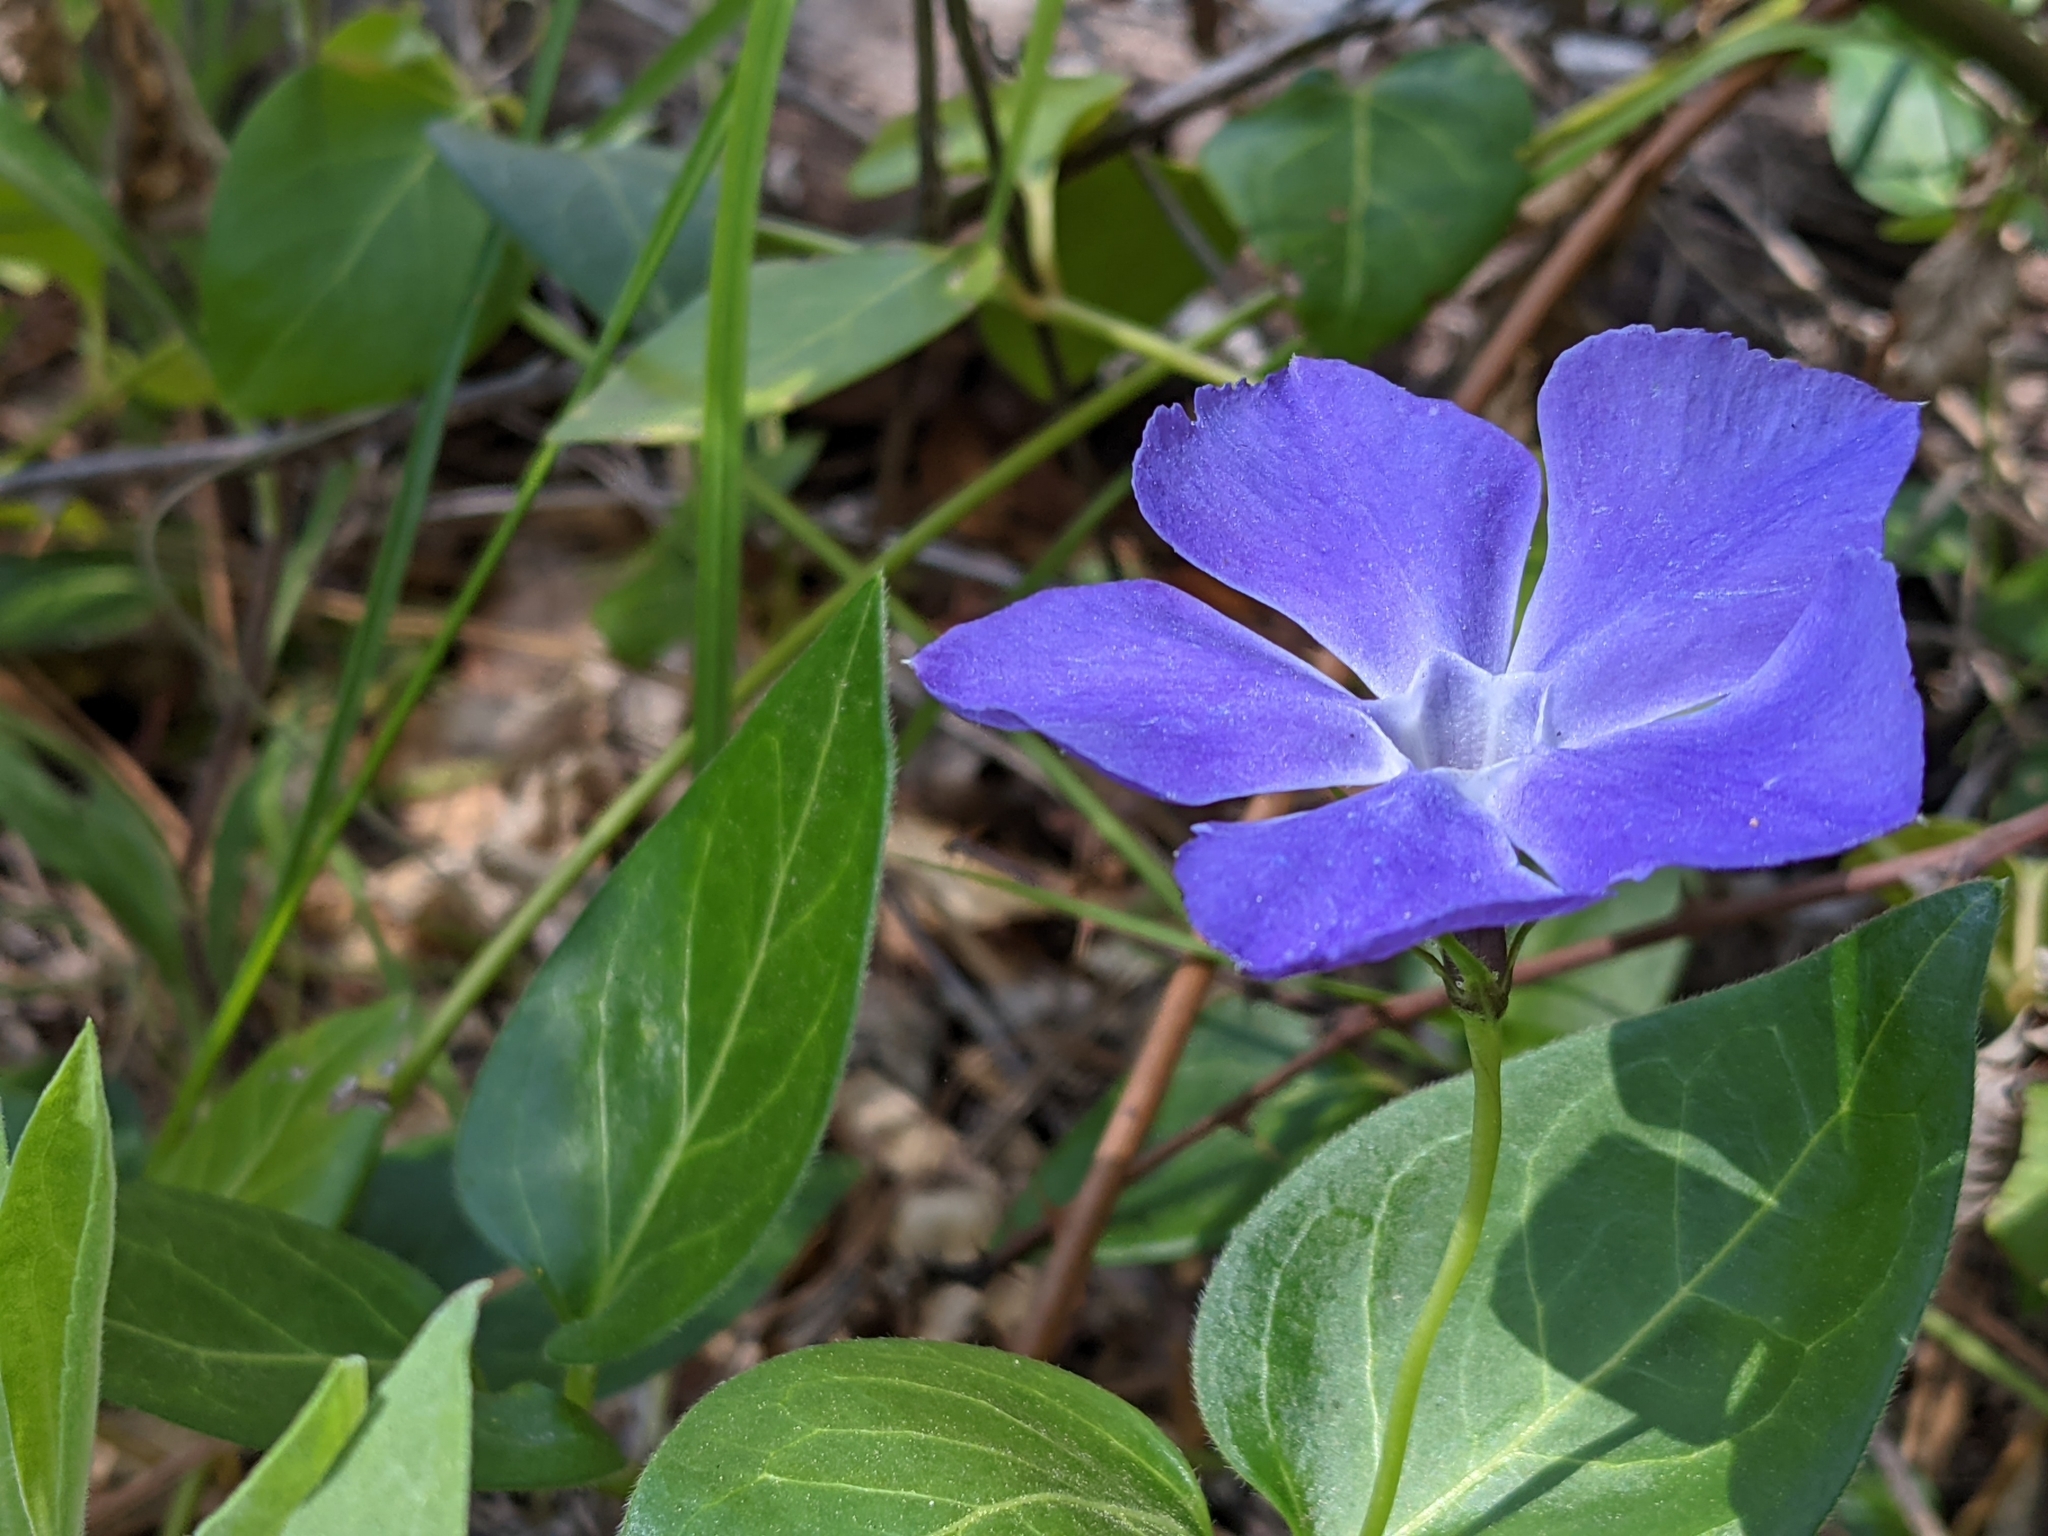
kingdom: Plantae
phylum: Tracheophyta
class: Magnoliopsida
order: Gentianales
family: Apocynaceae
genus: Vinca
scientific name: Vinca major
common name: Greater periwinkle
